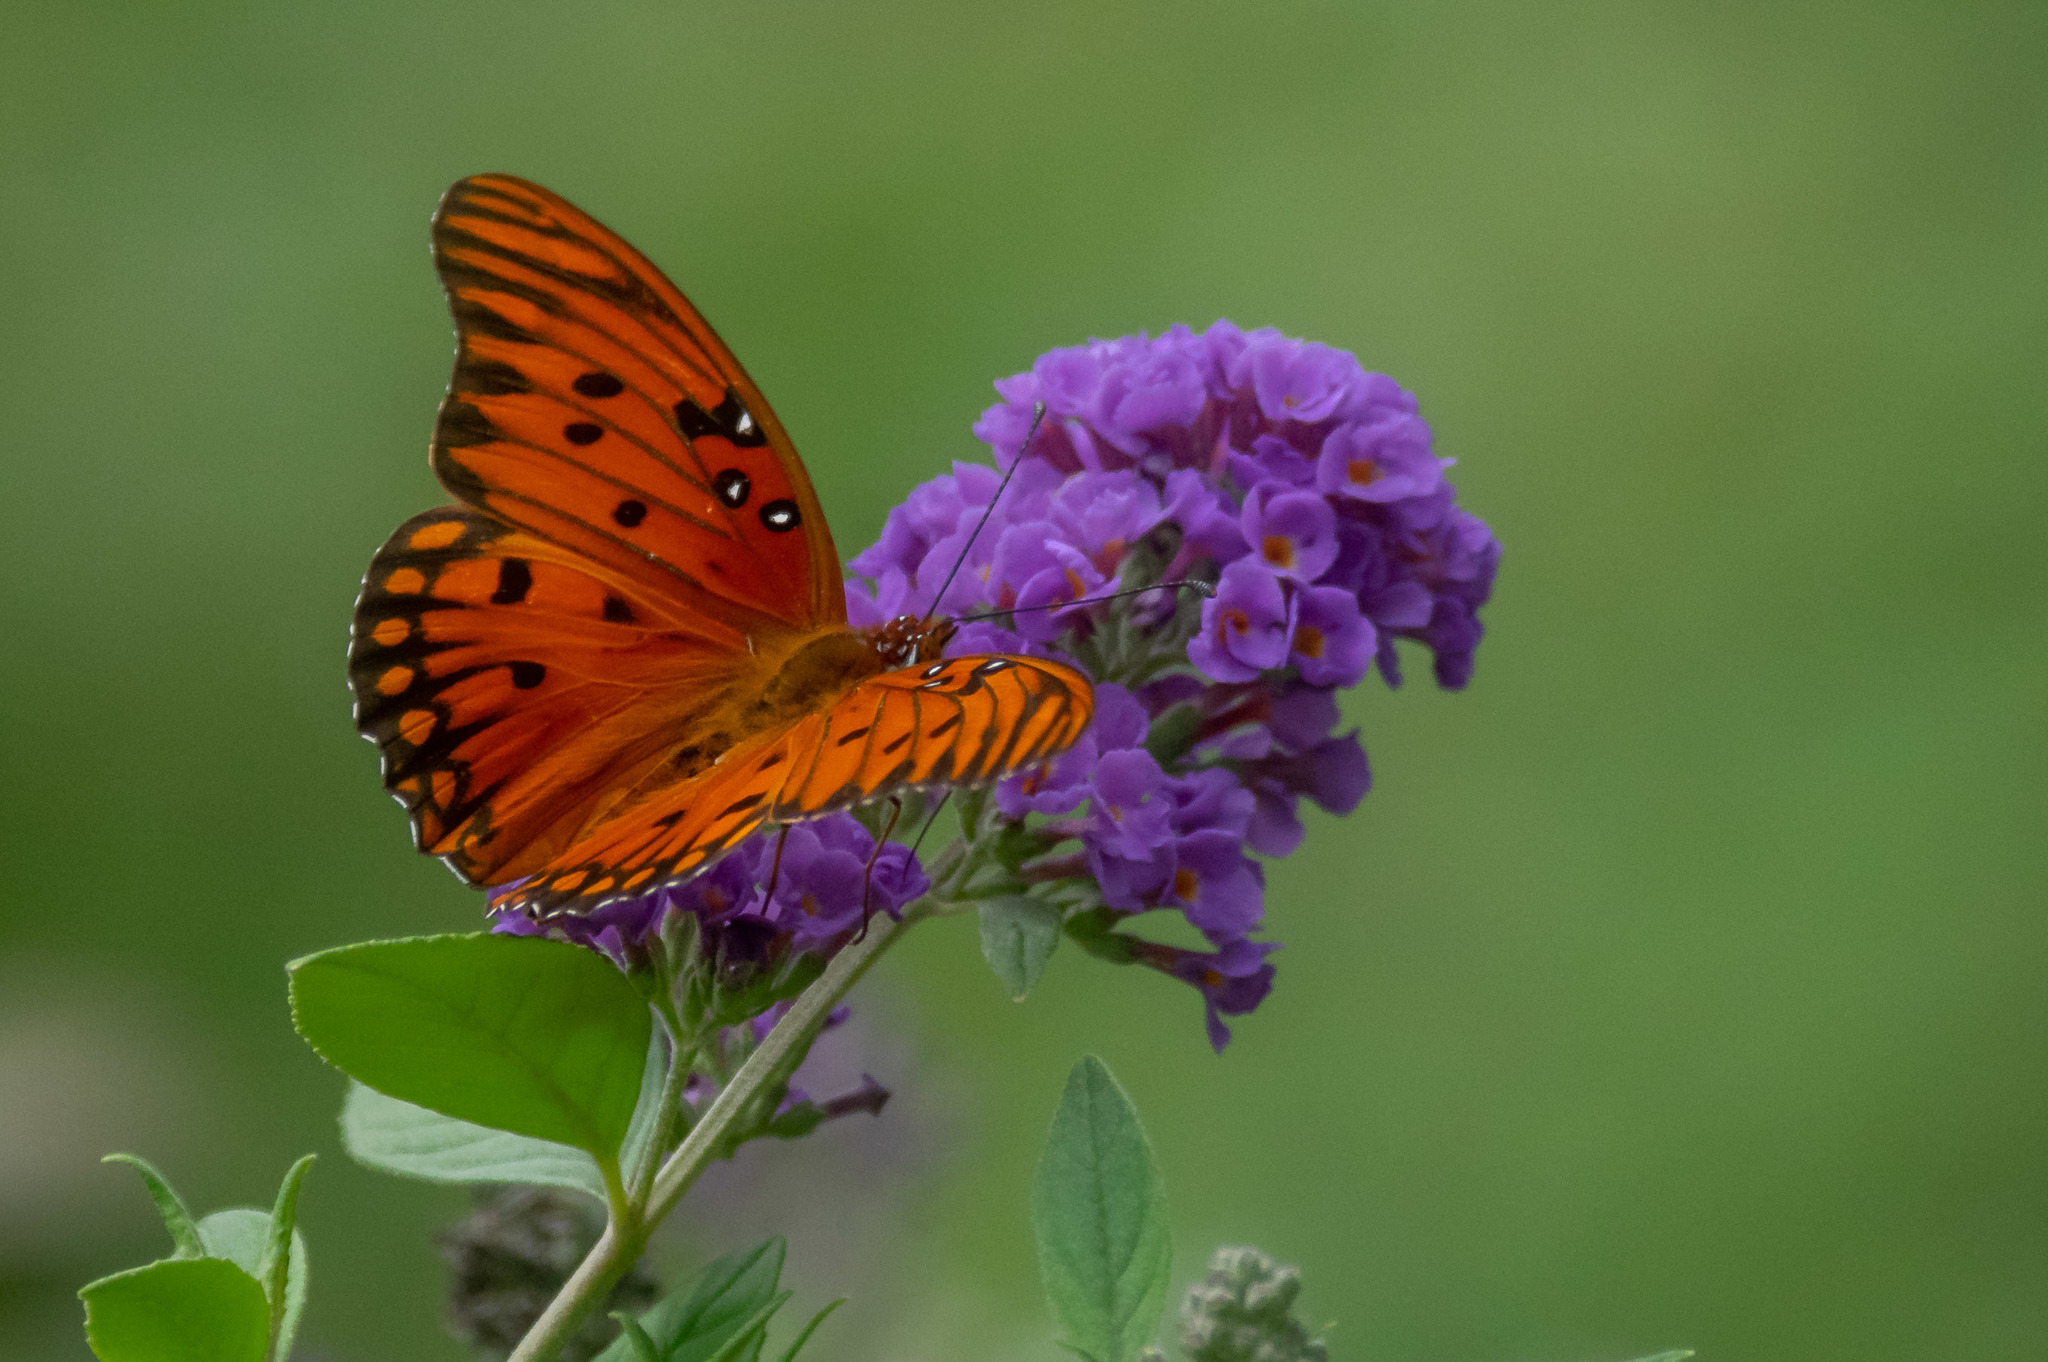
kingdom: Animalia
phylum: Arthropoda
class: Insecta
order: Lepidoptera
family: Nymphalidae
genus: Dione
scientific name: Dione vanillae
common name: Gulf fritillary
